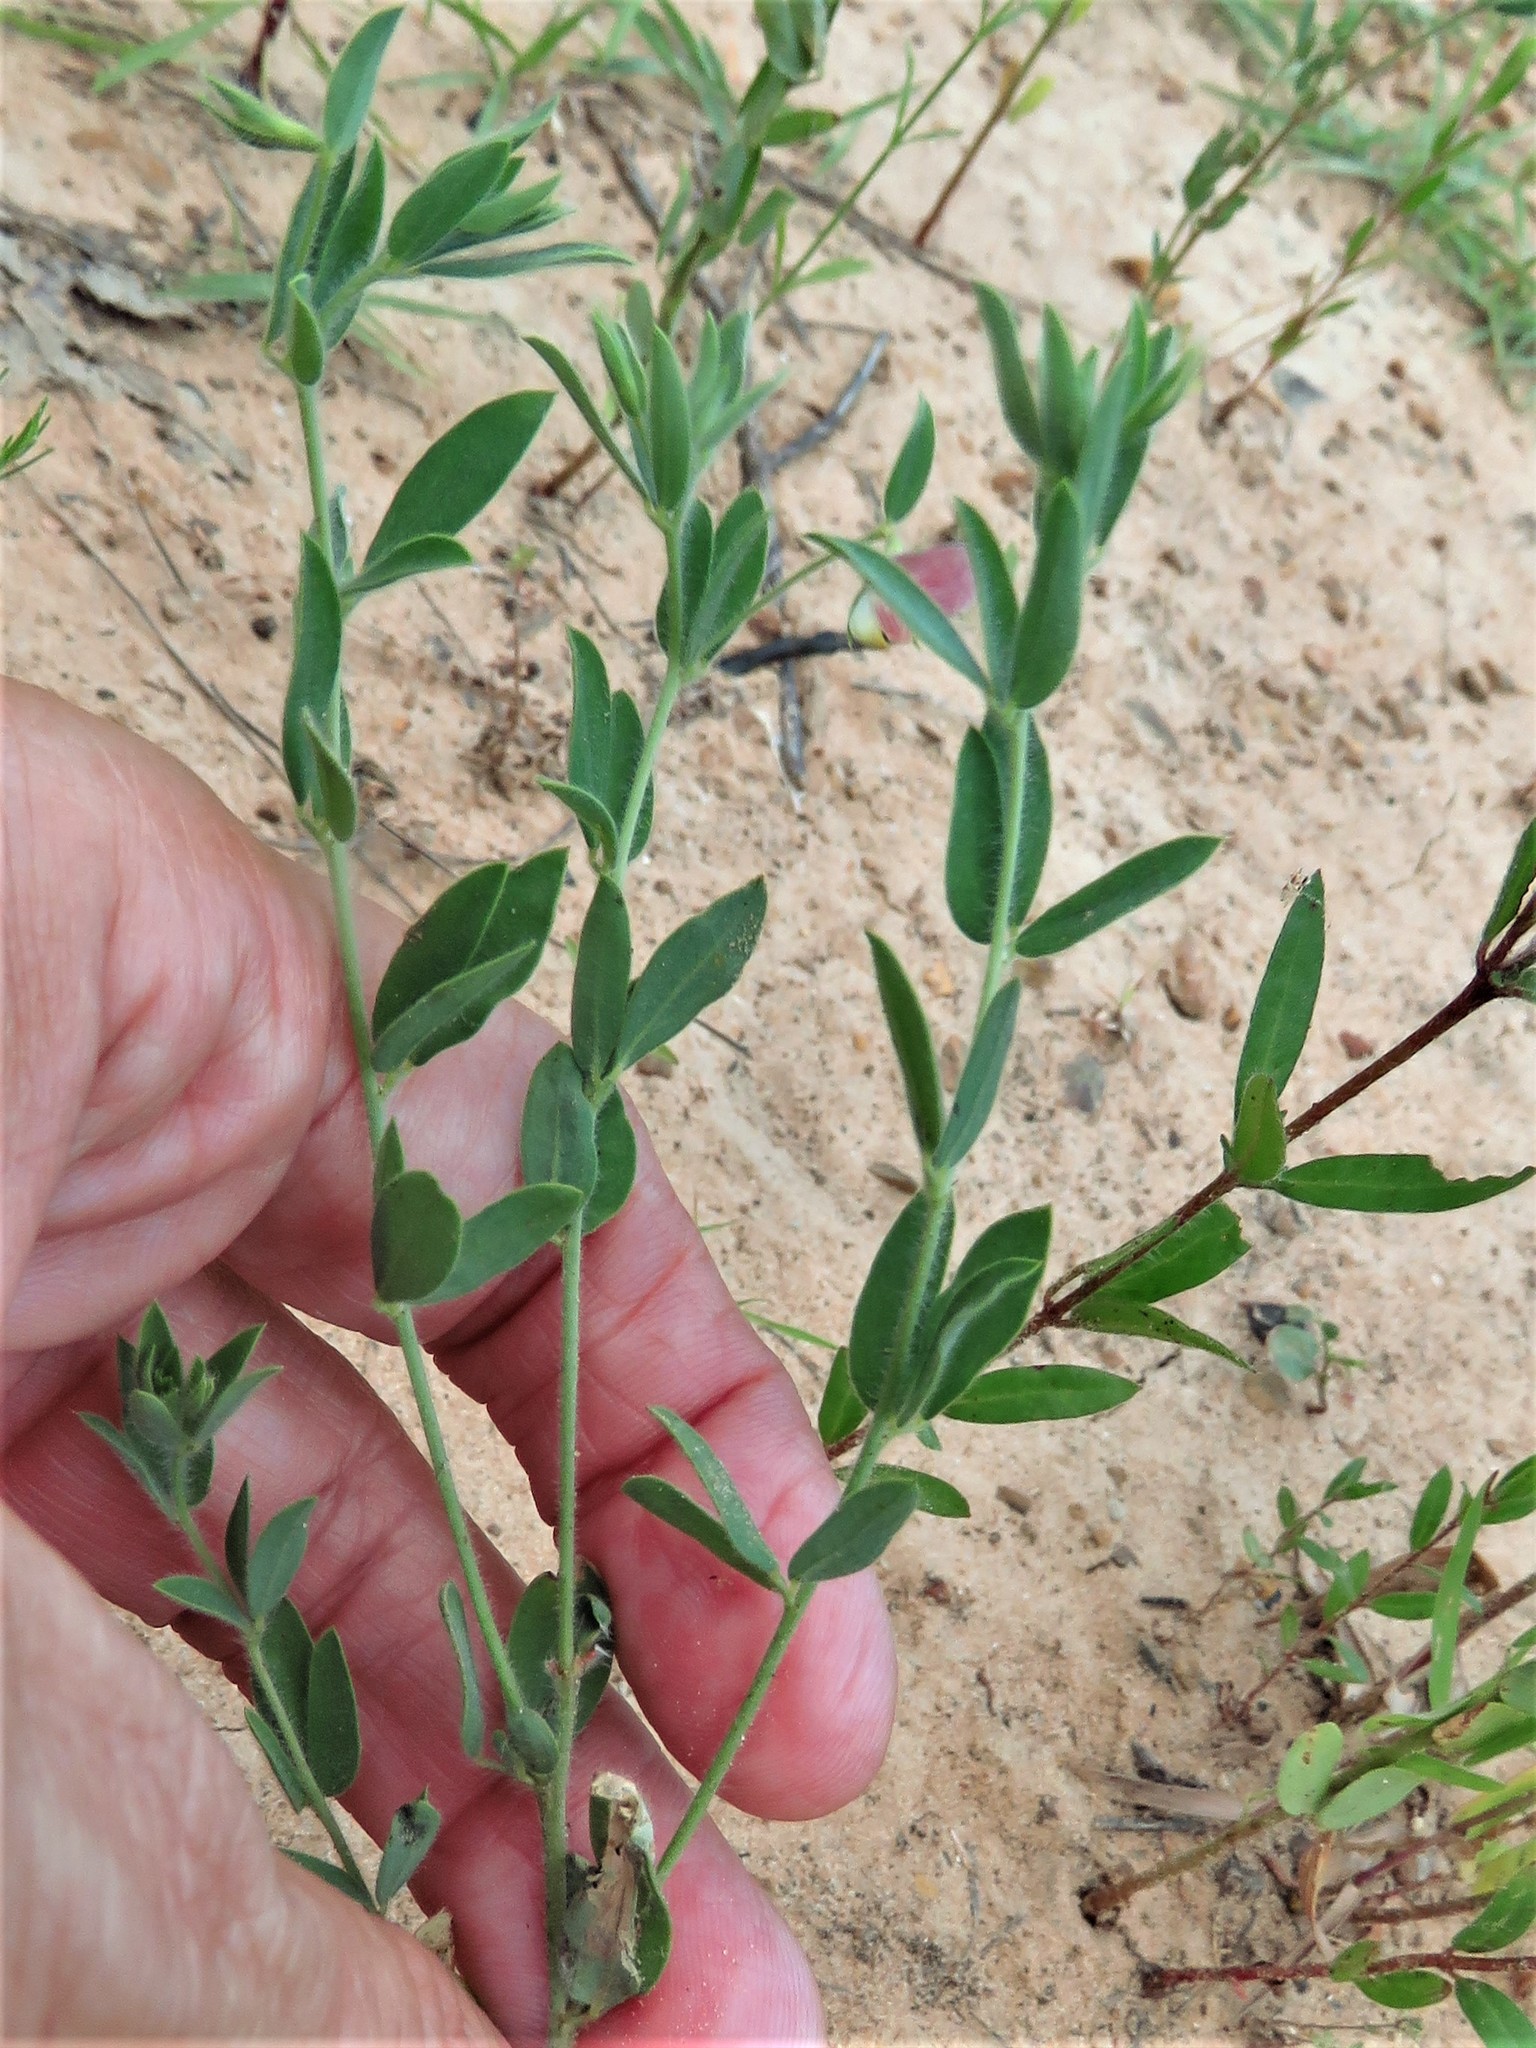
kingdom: Plantae
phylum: Tracheophyta
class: Magnoliopsida
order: Fabales
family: Fabaceae
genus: Acmispon
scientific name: Acmispon americanus
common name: American bird's-foot trefoil
